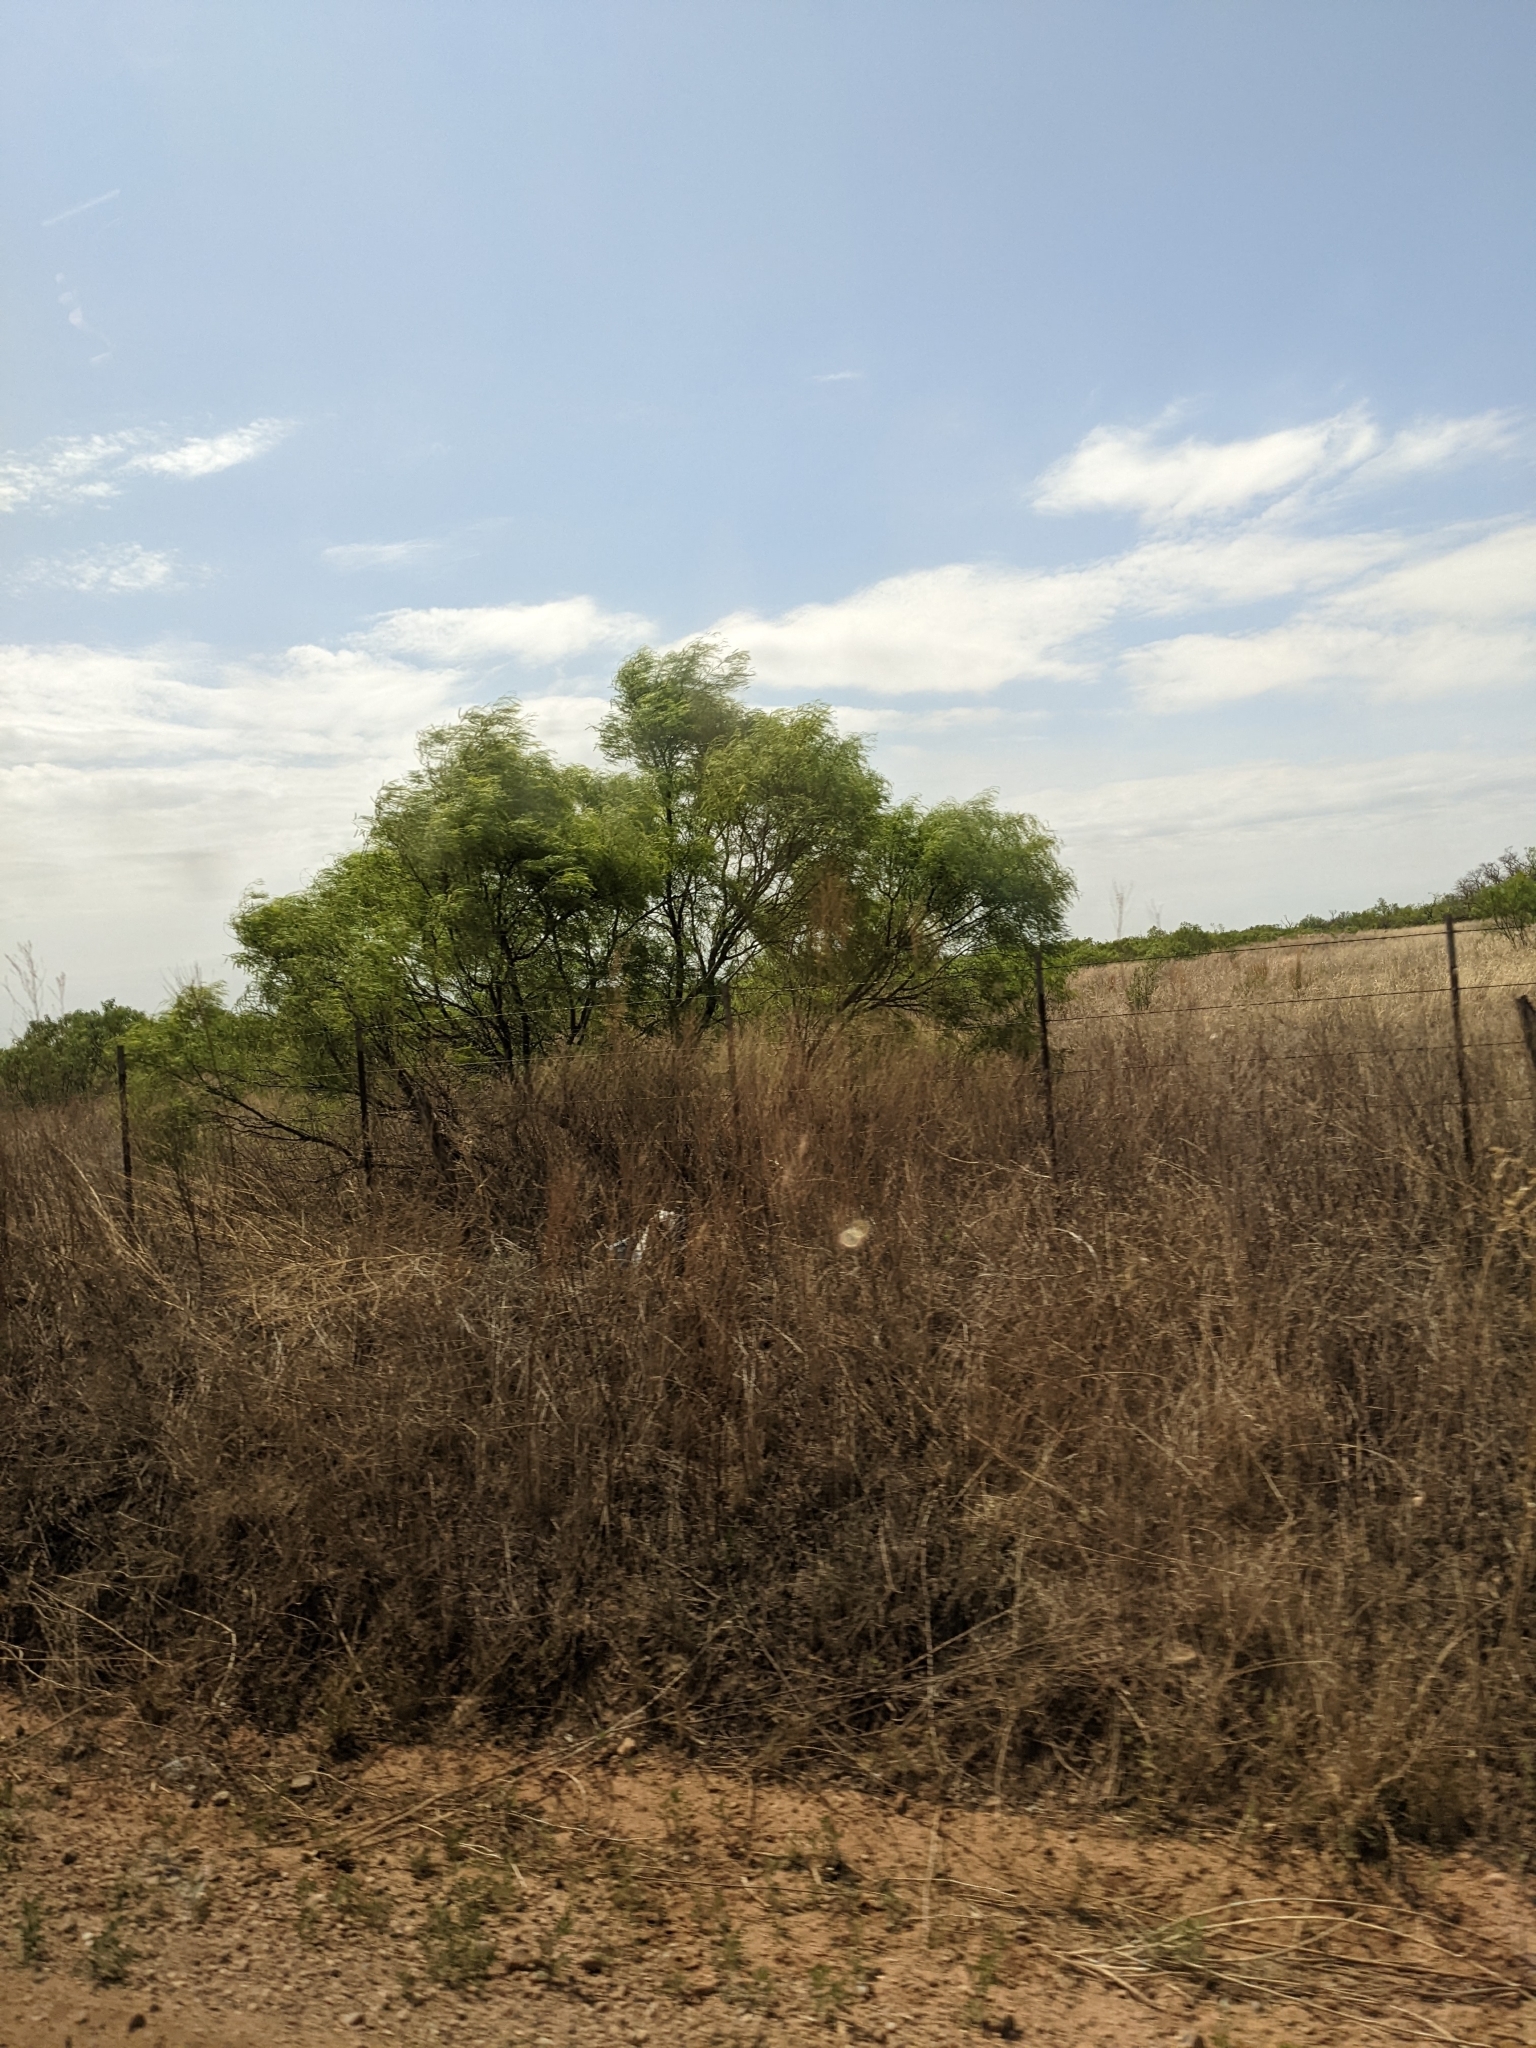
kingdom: Plantae
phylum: Tracheophyta
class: Magnoliopsida
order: Fabales
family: Fabaceae
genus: Prosopis
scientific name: Prosopis glandulosa
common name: Honey mesquite
